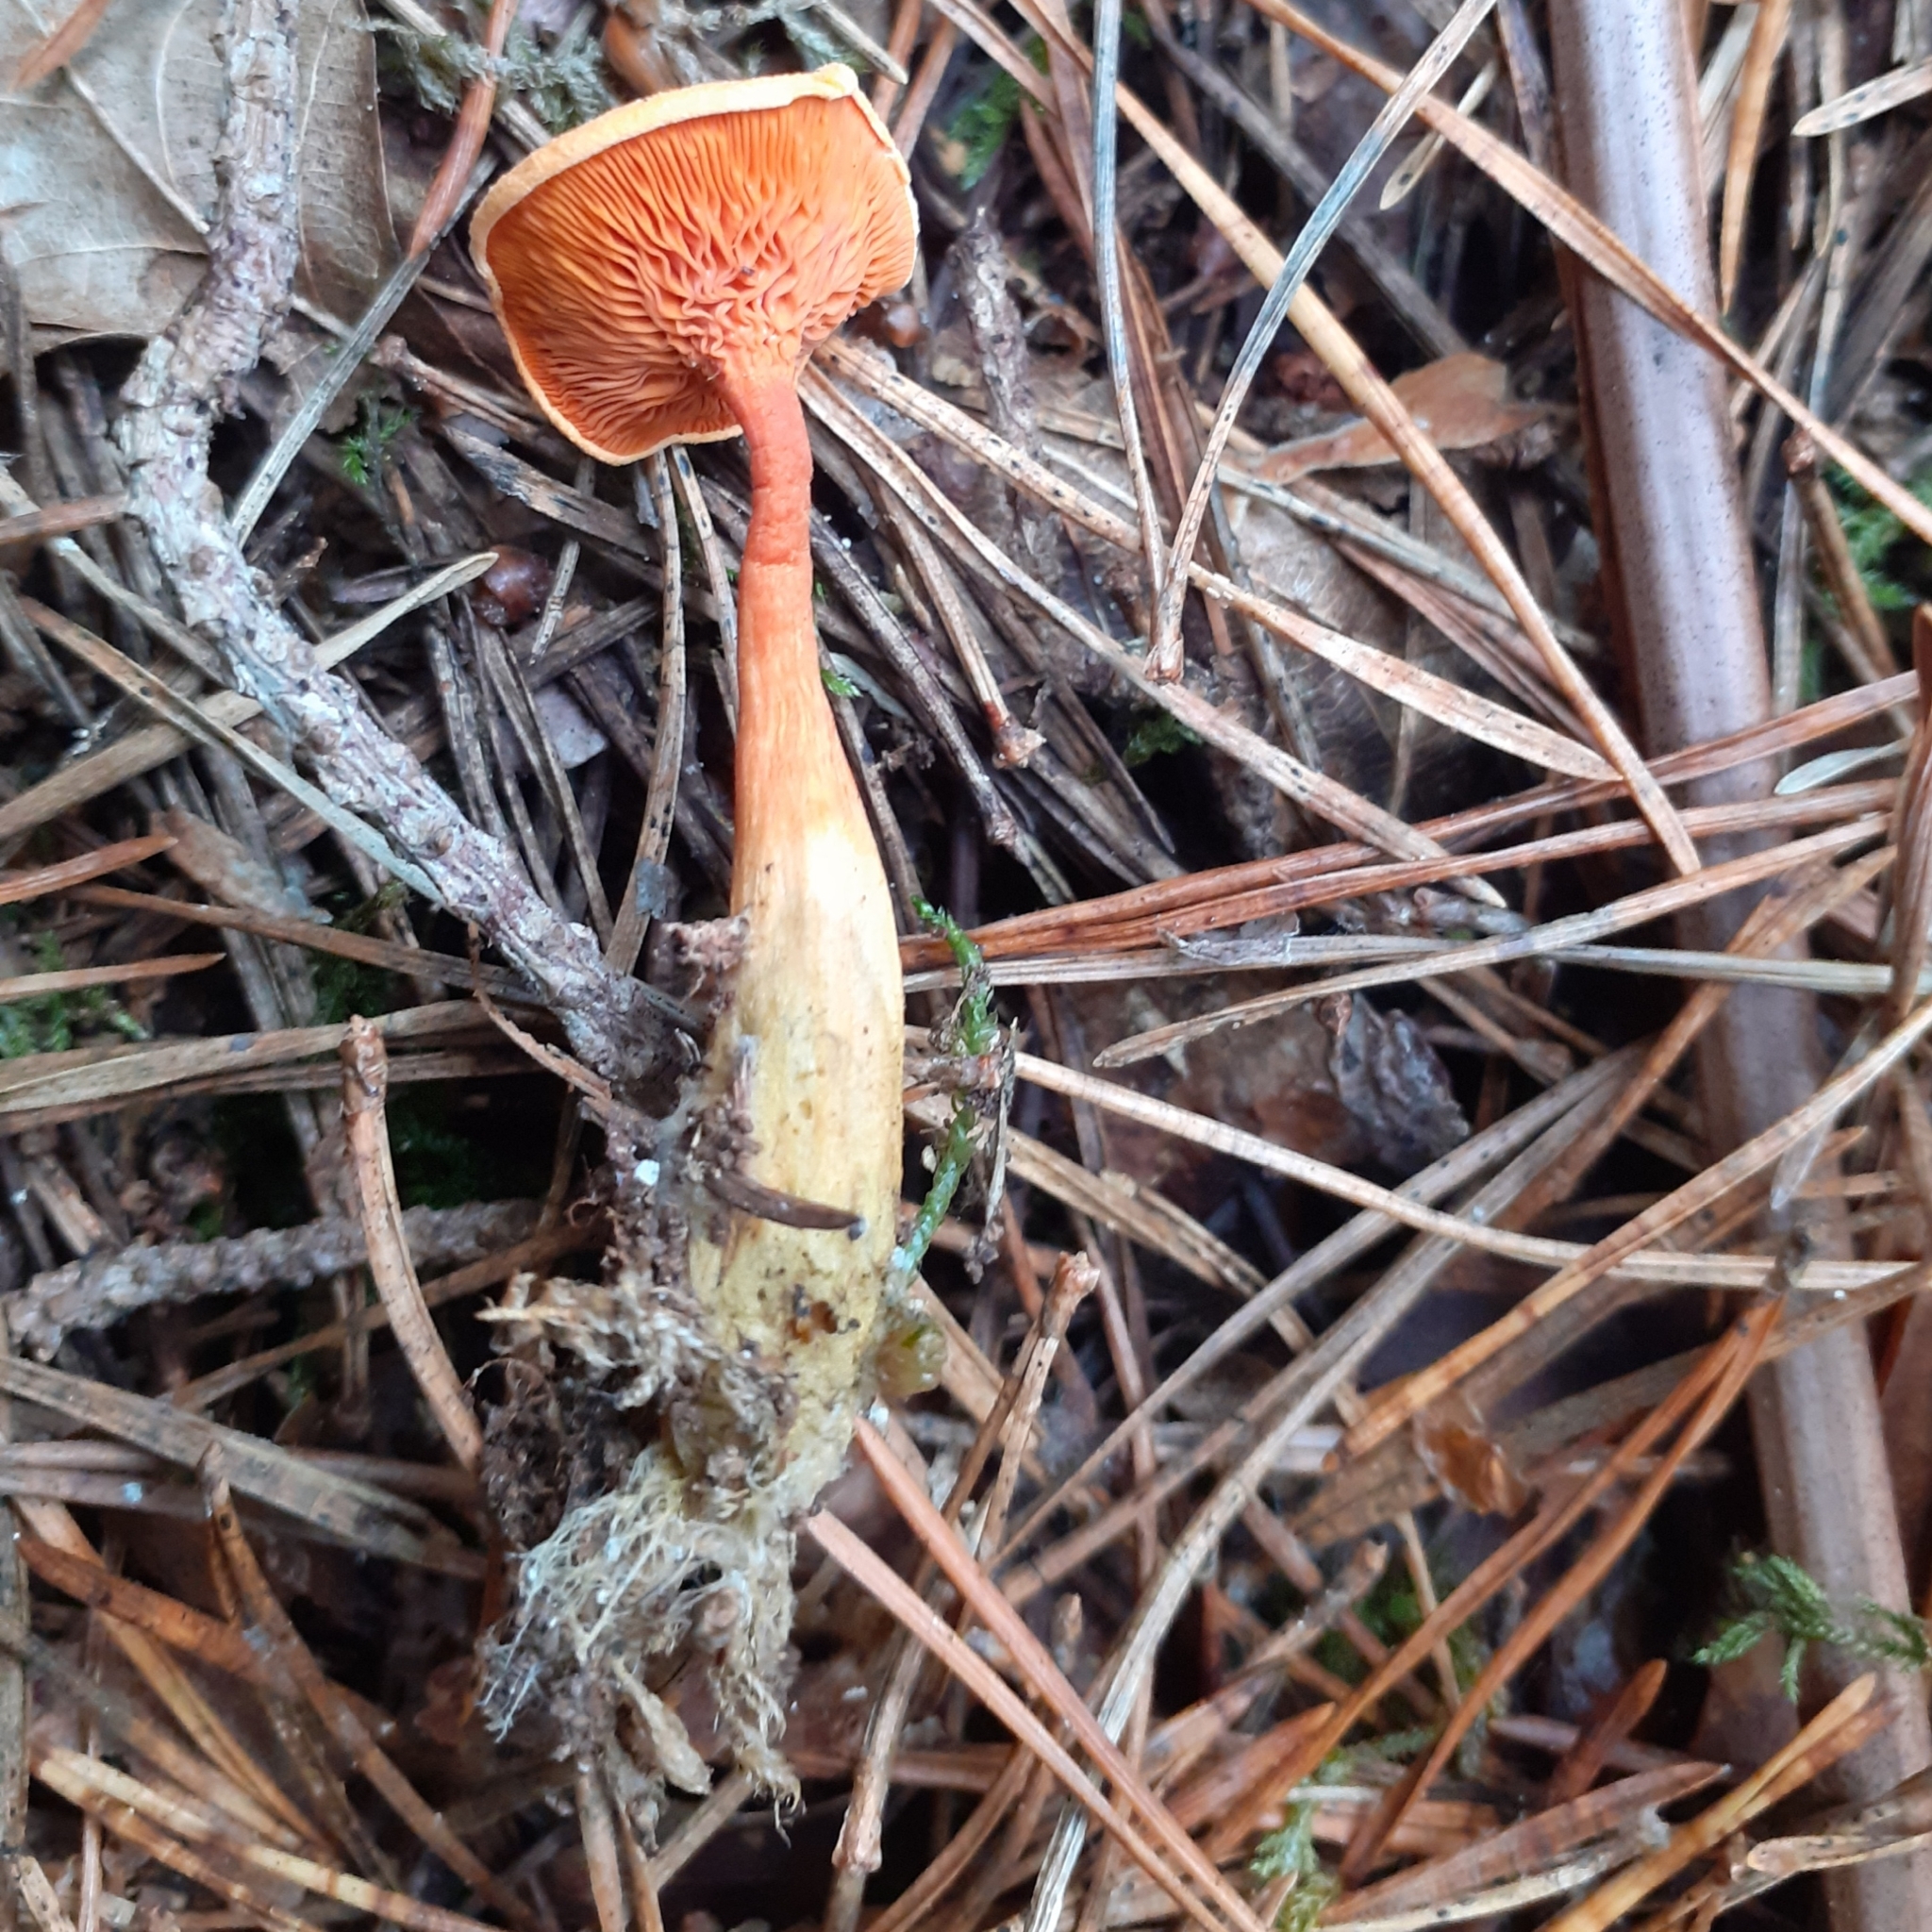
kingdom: Fungi
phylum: Basidiomycota
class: Agaricomycetes
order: Boletales
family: Hygrophoropsidaceae
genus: Hygrophoropsis
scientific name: Hygrophoropsis aurantiaca
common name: False chanterelle
